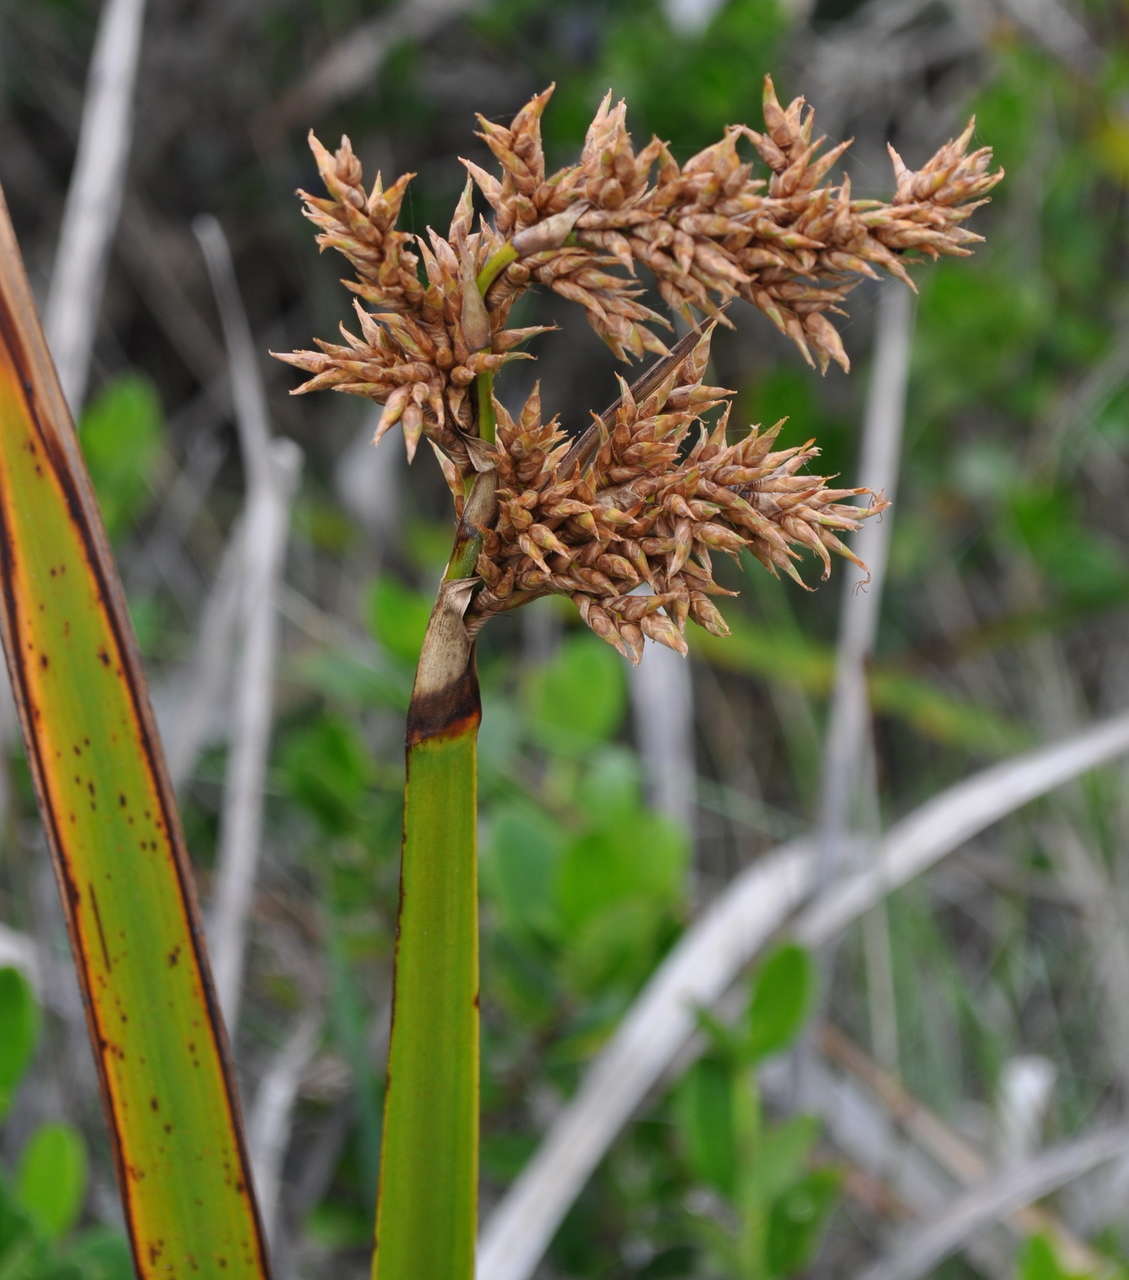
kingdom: Plantae
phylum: Tracheophyta
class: Liliopsida
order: Poales
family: Cyperaceae
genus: Lepidosperma
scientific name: Lepidosperma gladiatum
